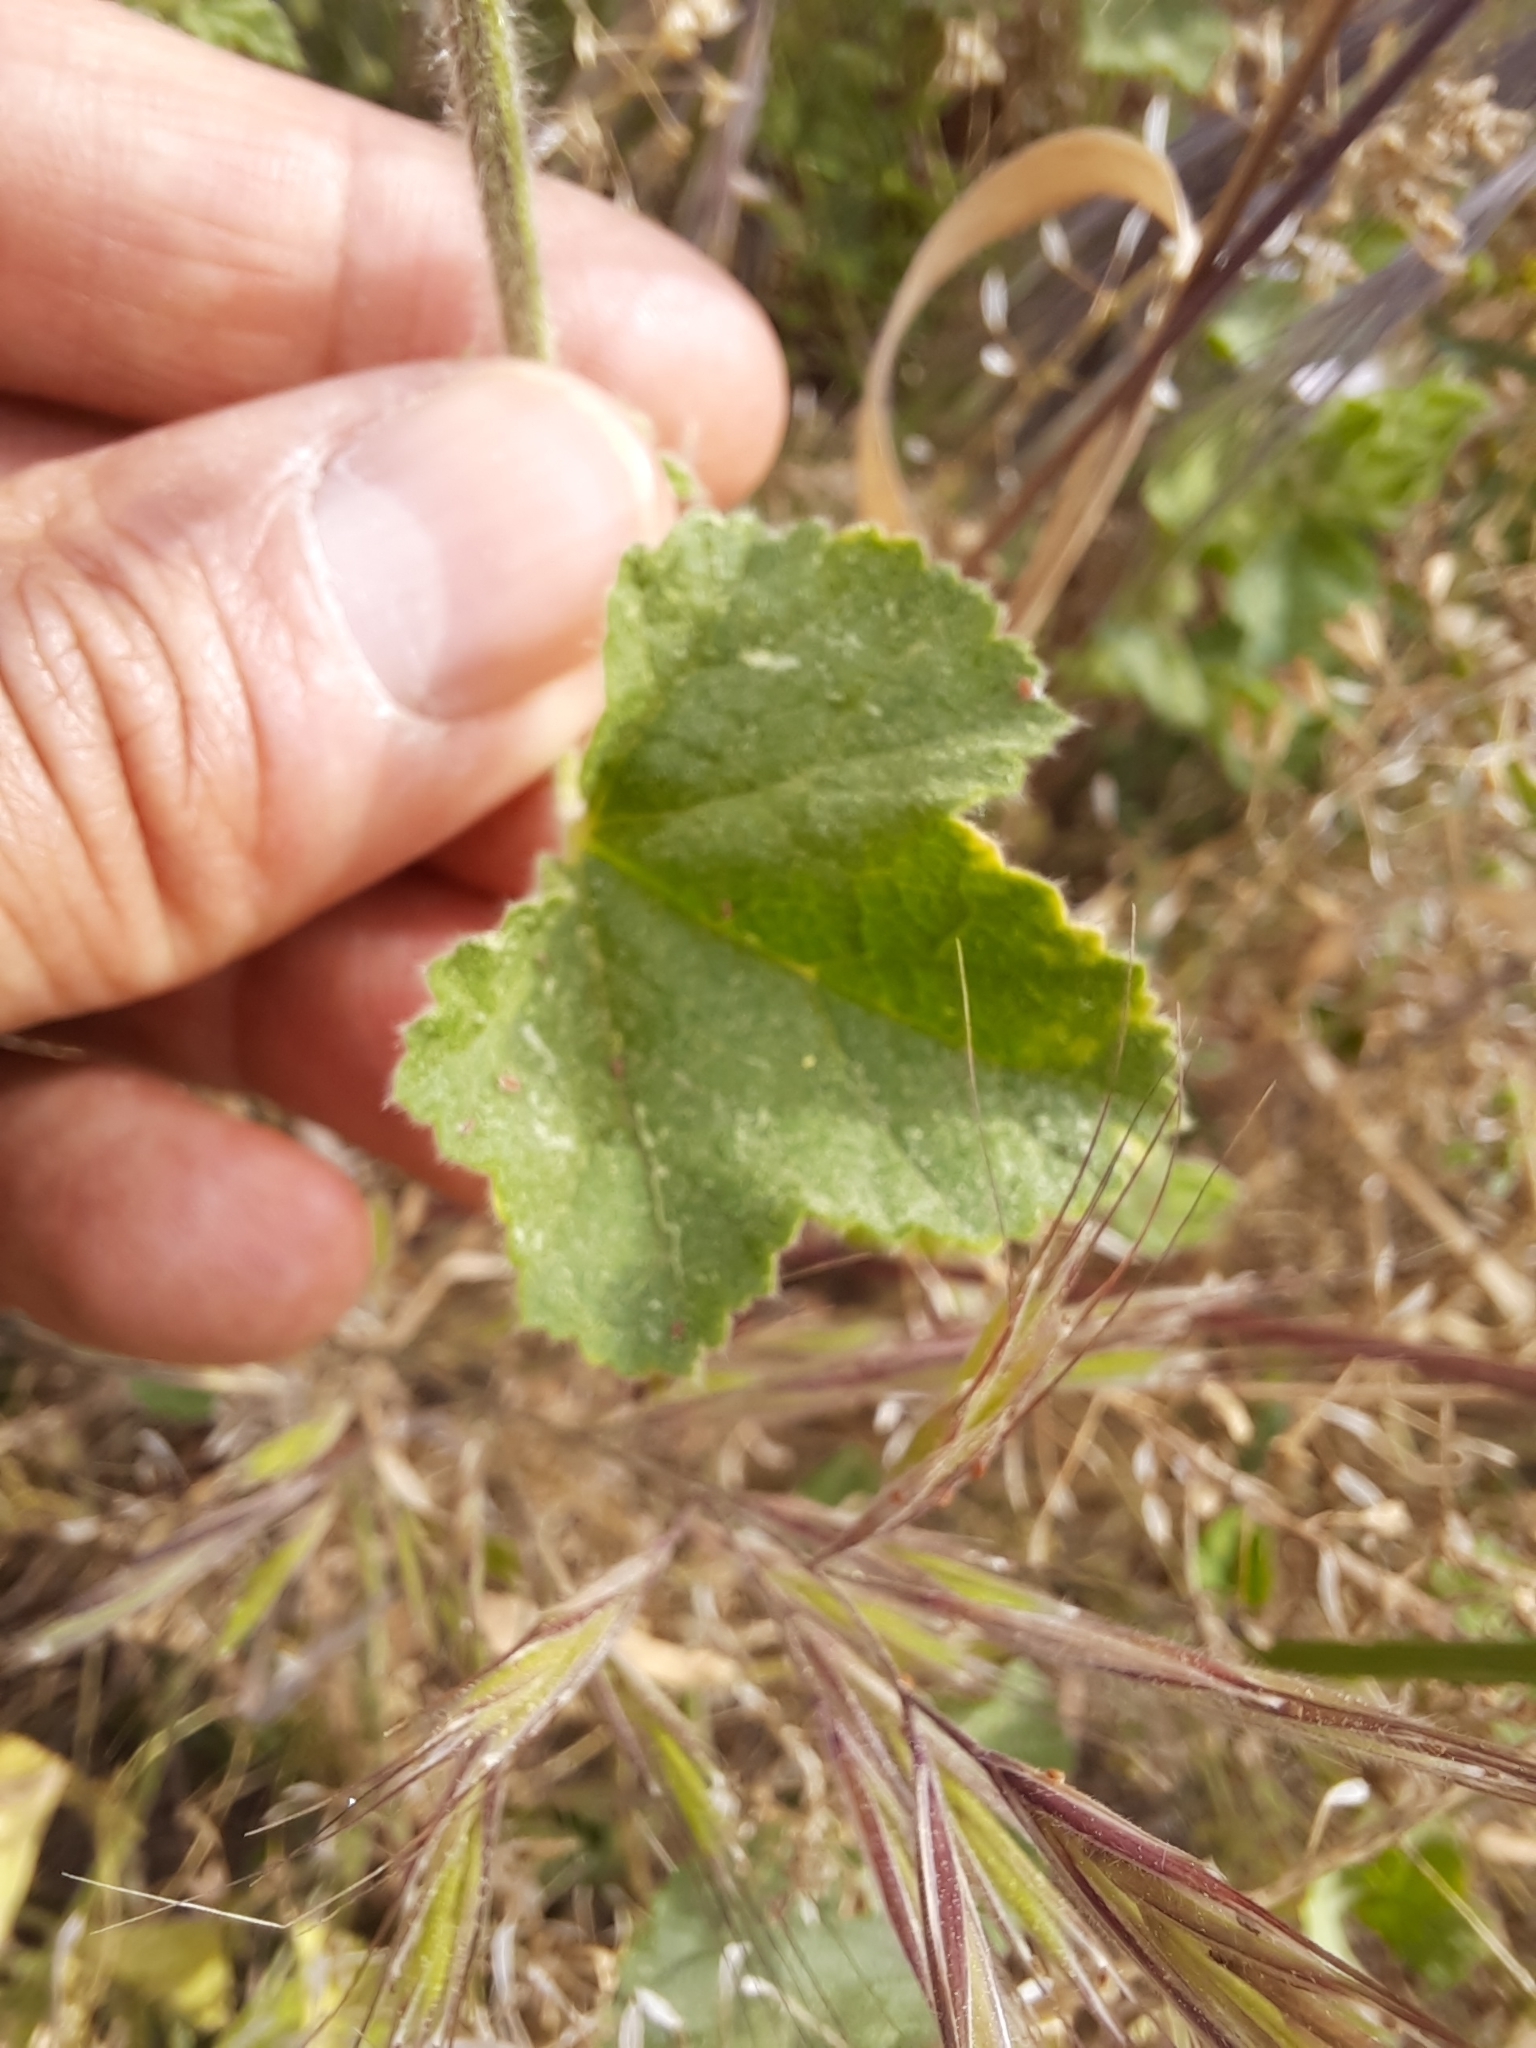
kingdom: Plantae
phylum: Tracheophyta
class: Magnoliopsida
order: Malvales
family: Malvaceae
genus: Malva
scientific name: Malva hispanica
